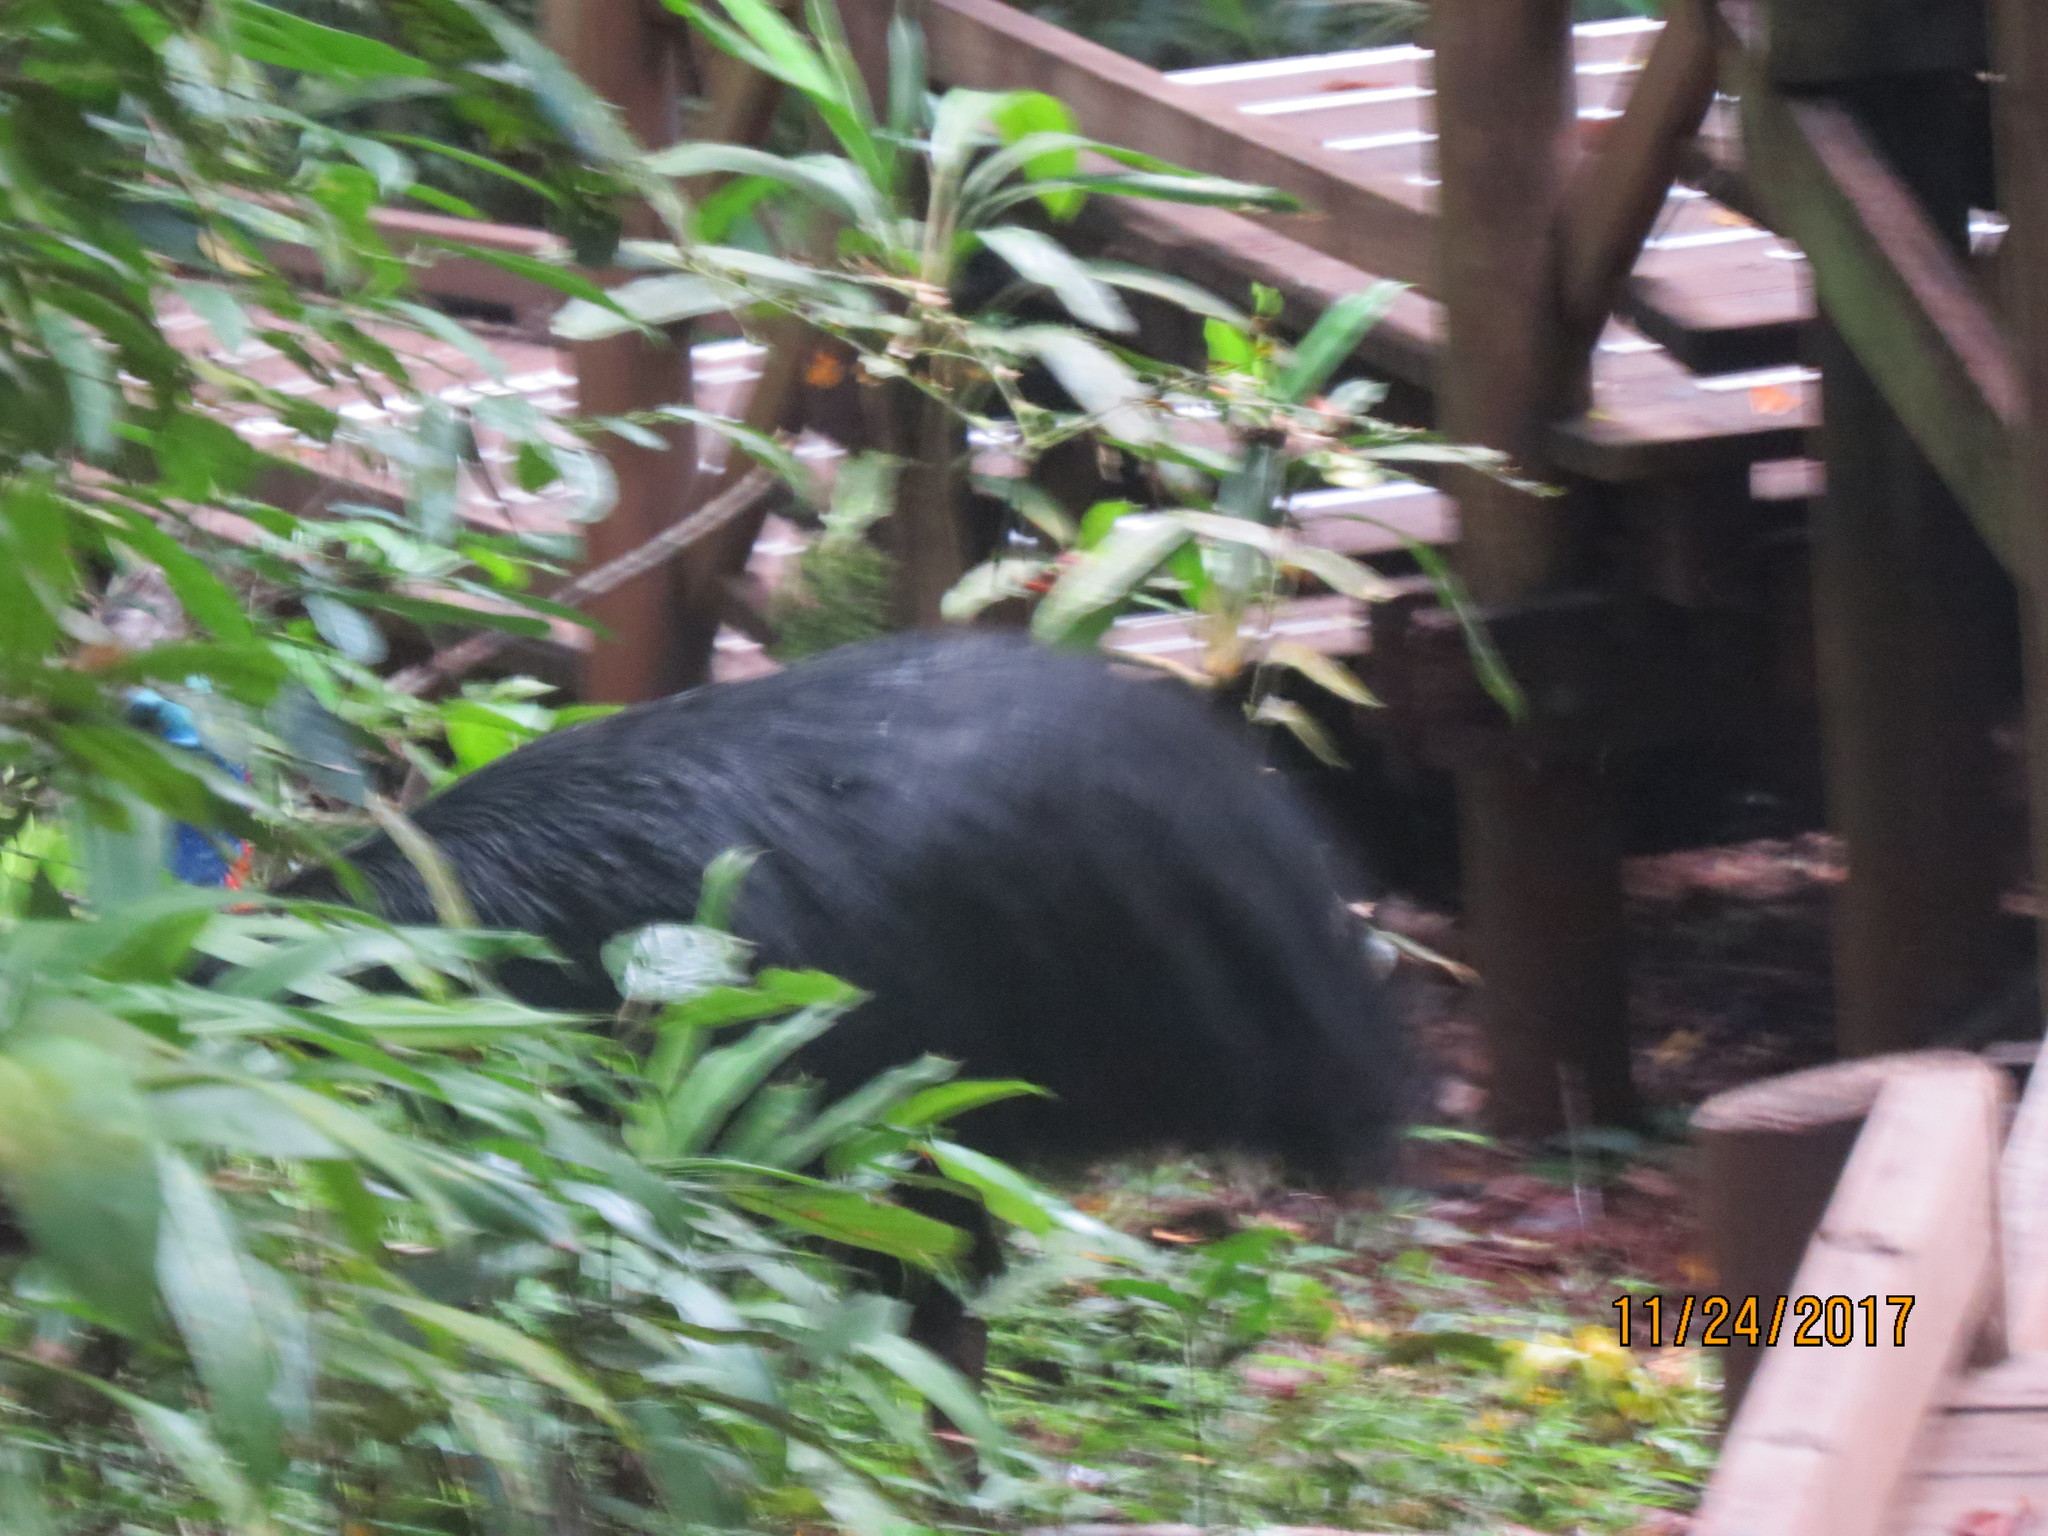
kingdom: Animalia
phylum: Chordata
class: Aves
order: Casuariiformes
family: Casuariidae
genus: Casuarius
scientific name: Casuarius casuarius
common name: Southern cassowary
